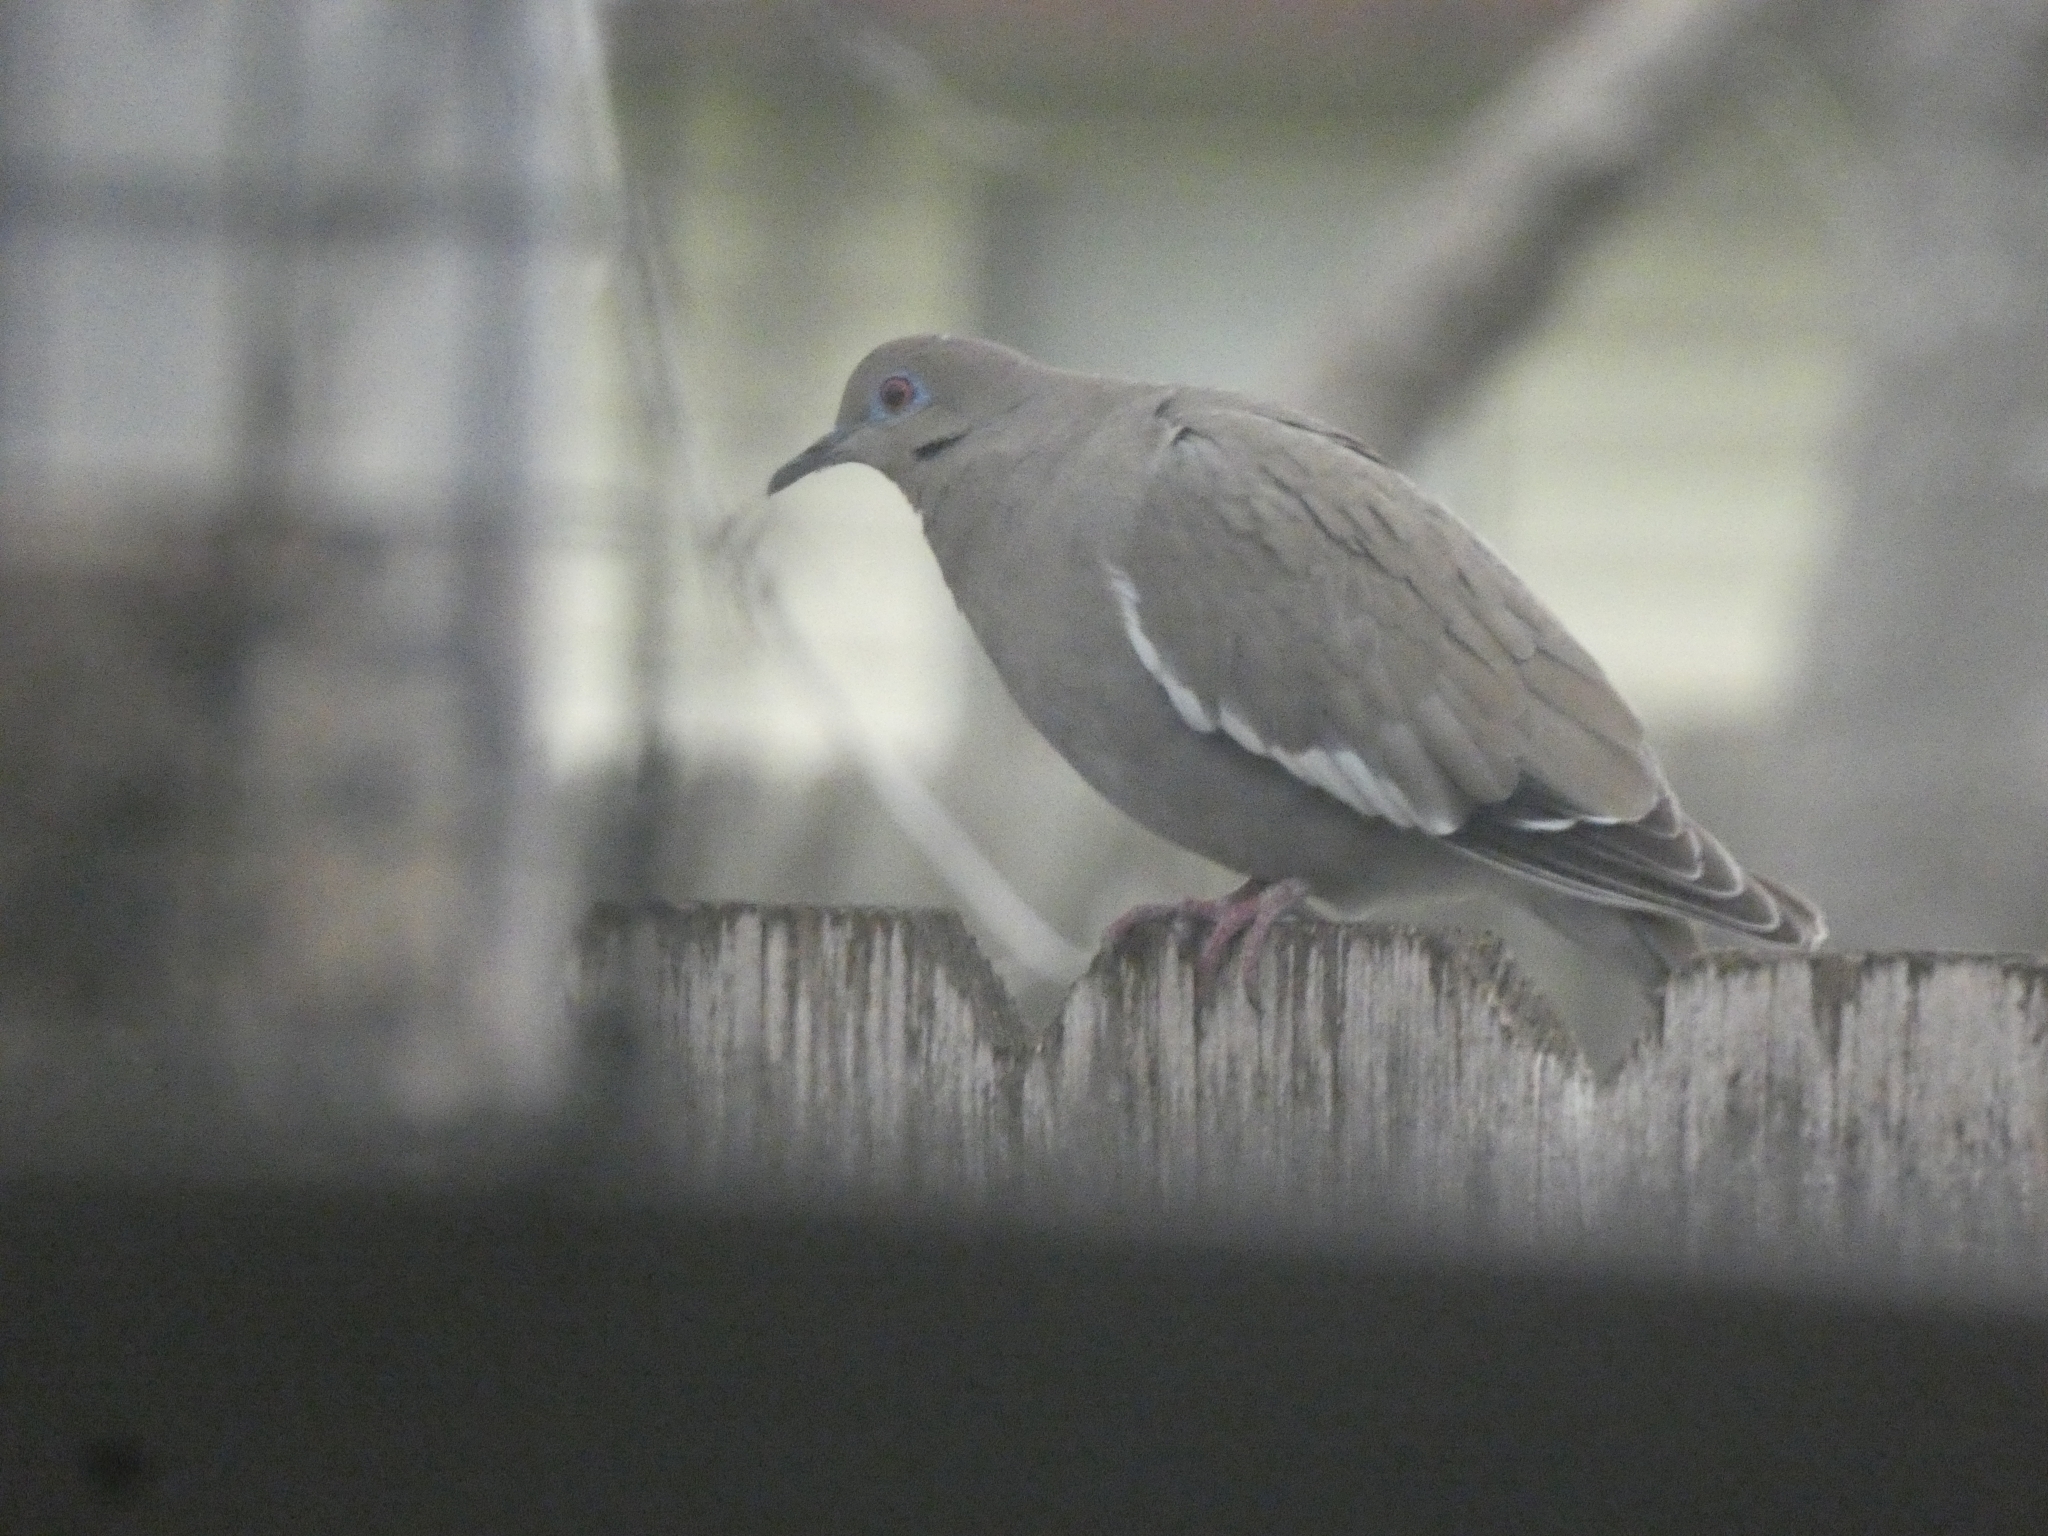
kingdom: Animalia
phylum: Chordata
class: Aves
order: Columbiformes
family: Columbidae
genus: Zenaida
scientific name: Zenaida asiatica
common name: White-winged dove
